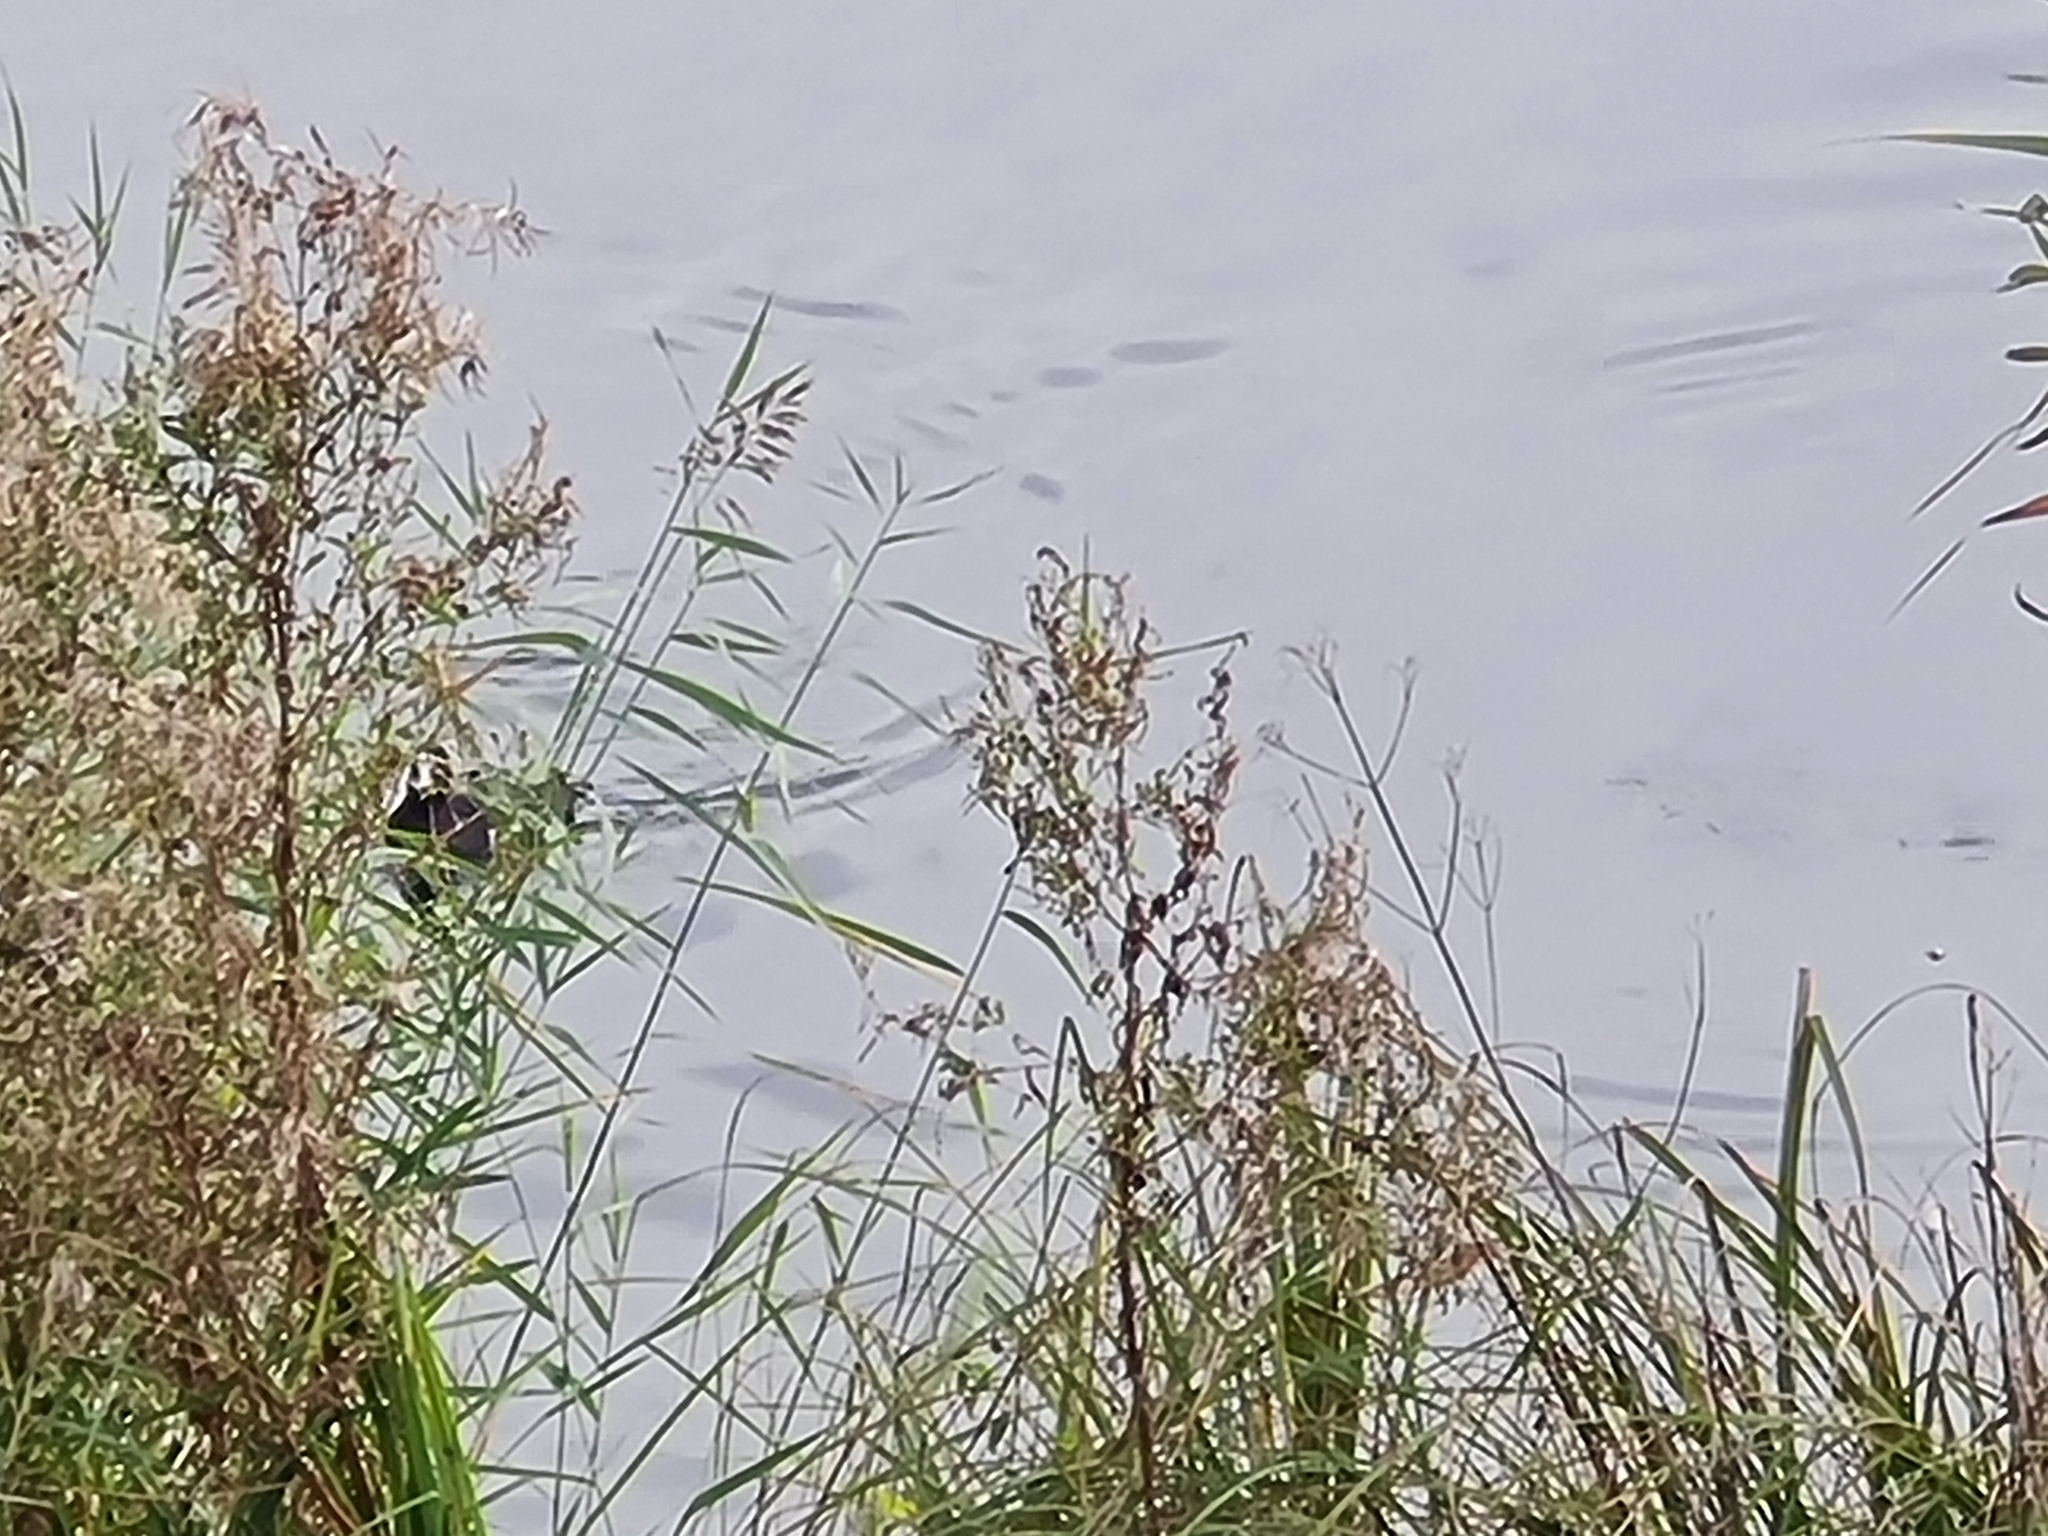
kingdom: Animalia
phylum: Chordata
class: Aves
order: Gruiformes
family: Rallidae
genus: Fulica
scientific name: Fulica atra
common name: Eurasian coot
